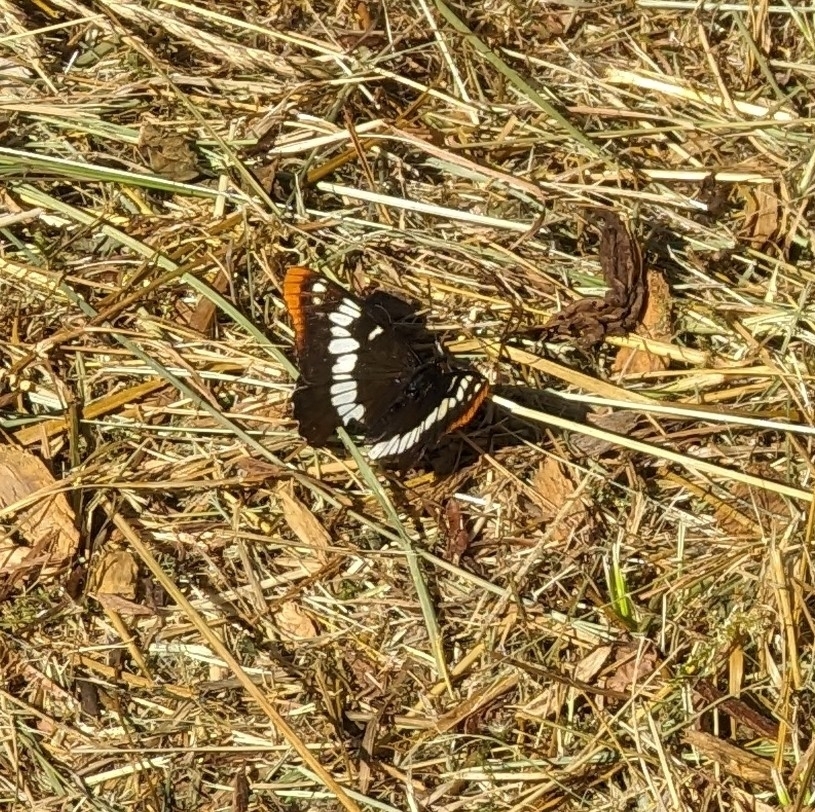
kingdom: Animalia
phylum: Arthropoda
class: Insecta
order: Lepidoptera
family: Nymphalidae
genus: Limenitis
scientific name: Limenitis lorquini
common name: Lorquin's admiral
